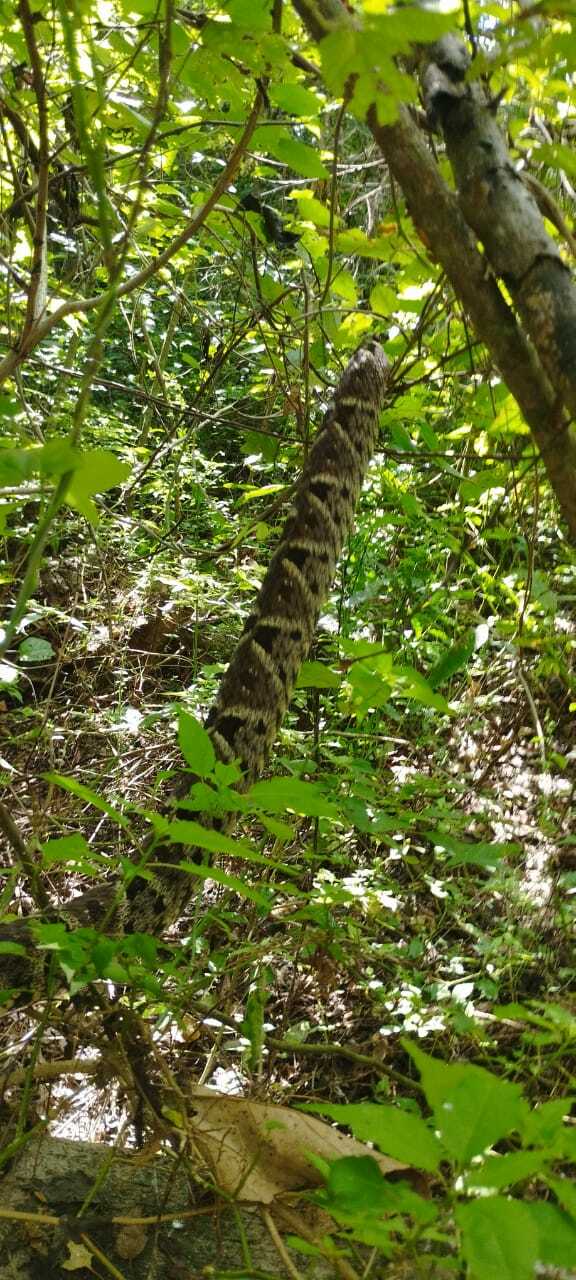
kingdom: Animalia
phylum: Chordata
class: Squamata
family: Viperidae
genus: Bothrops
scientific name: Bothrops asper
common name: Terciopelo
